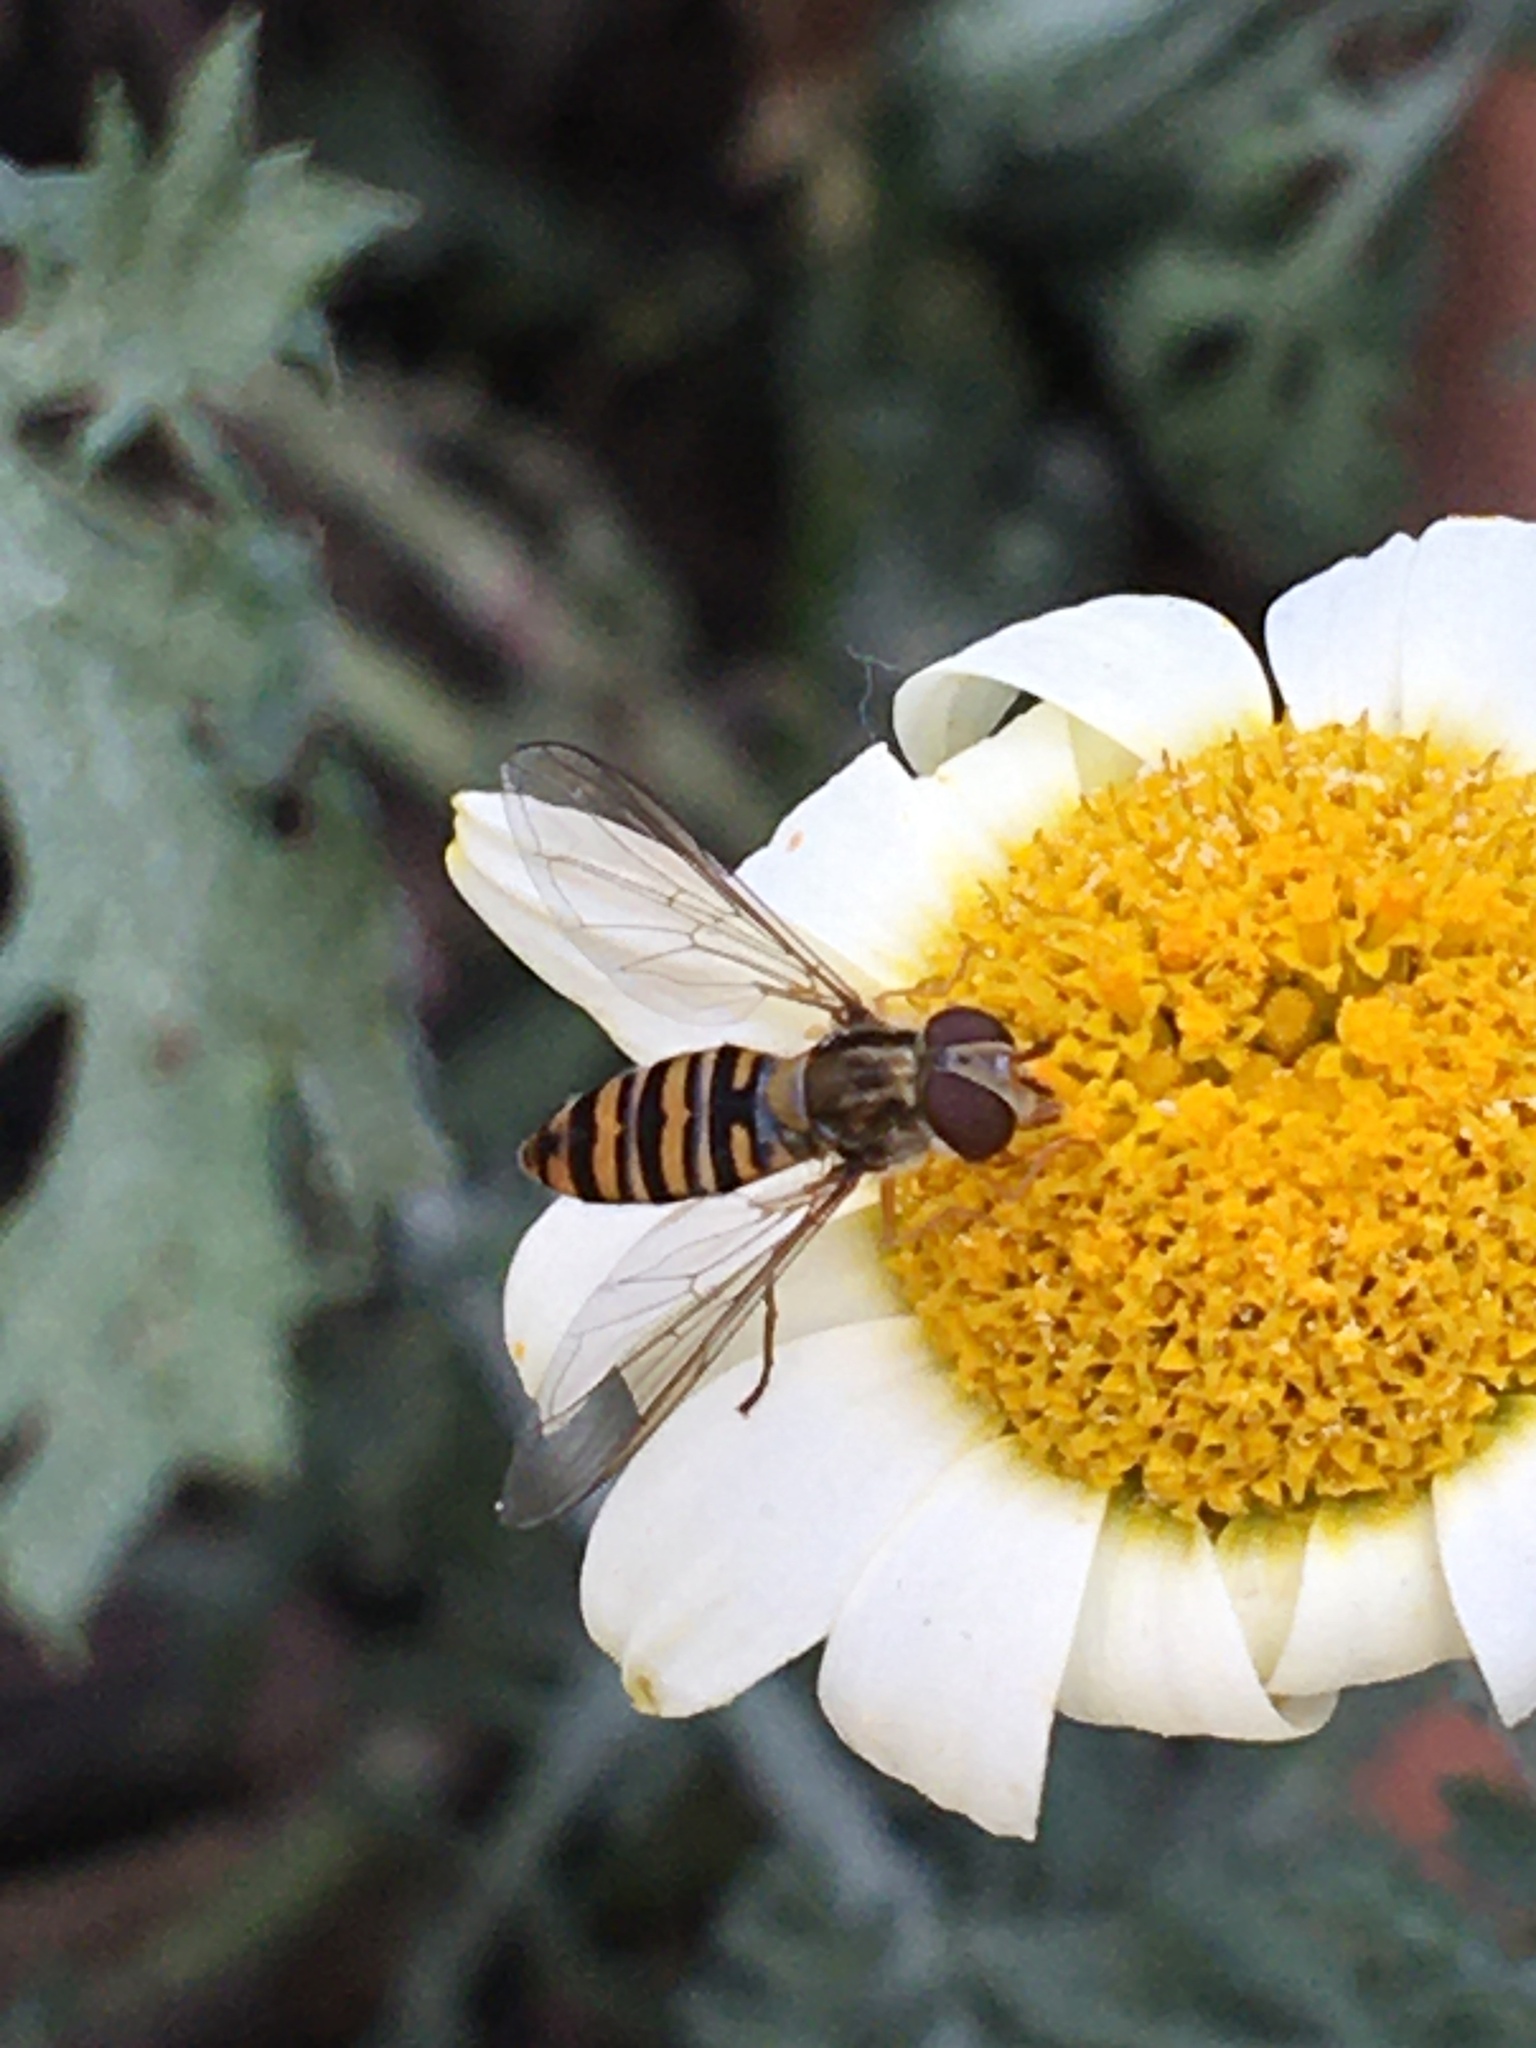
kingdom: Animalia
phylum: Arthropoda
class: Insecta
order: Diptera
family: Syrphidae
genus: Episyrphus
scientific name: Episyrphus balteatus
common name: Marmalade hoverfly
